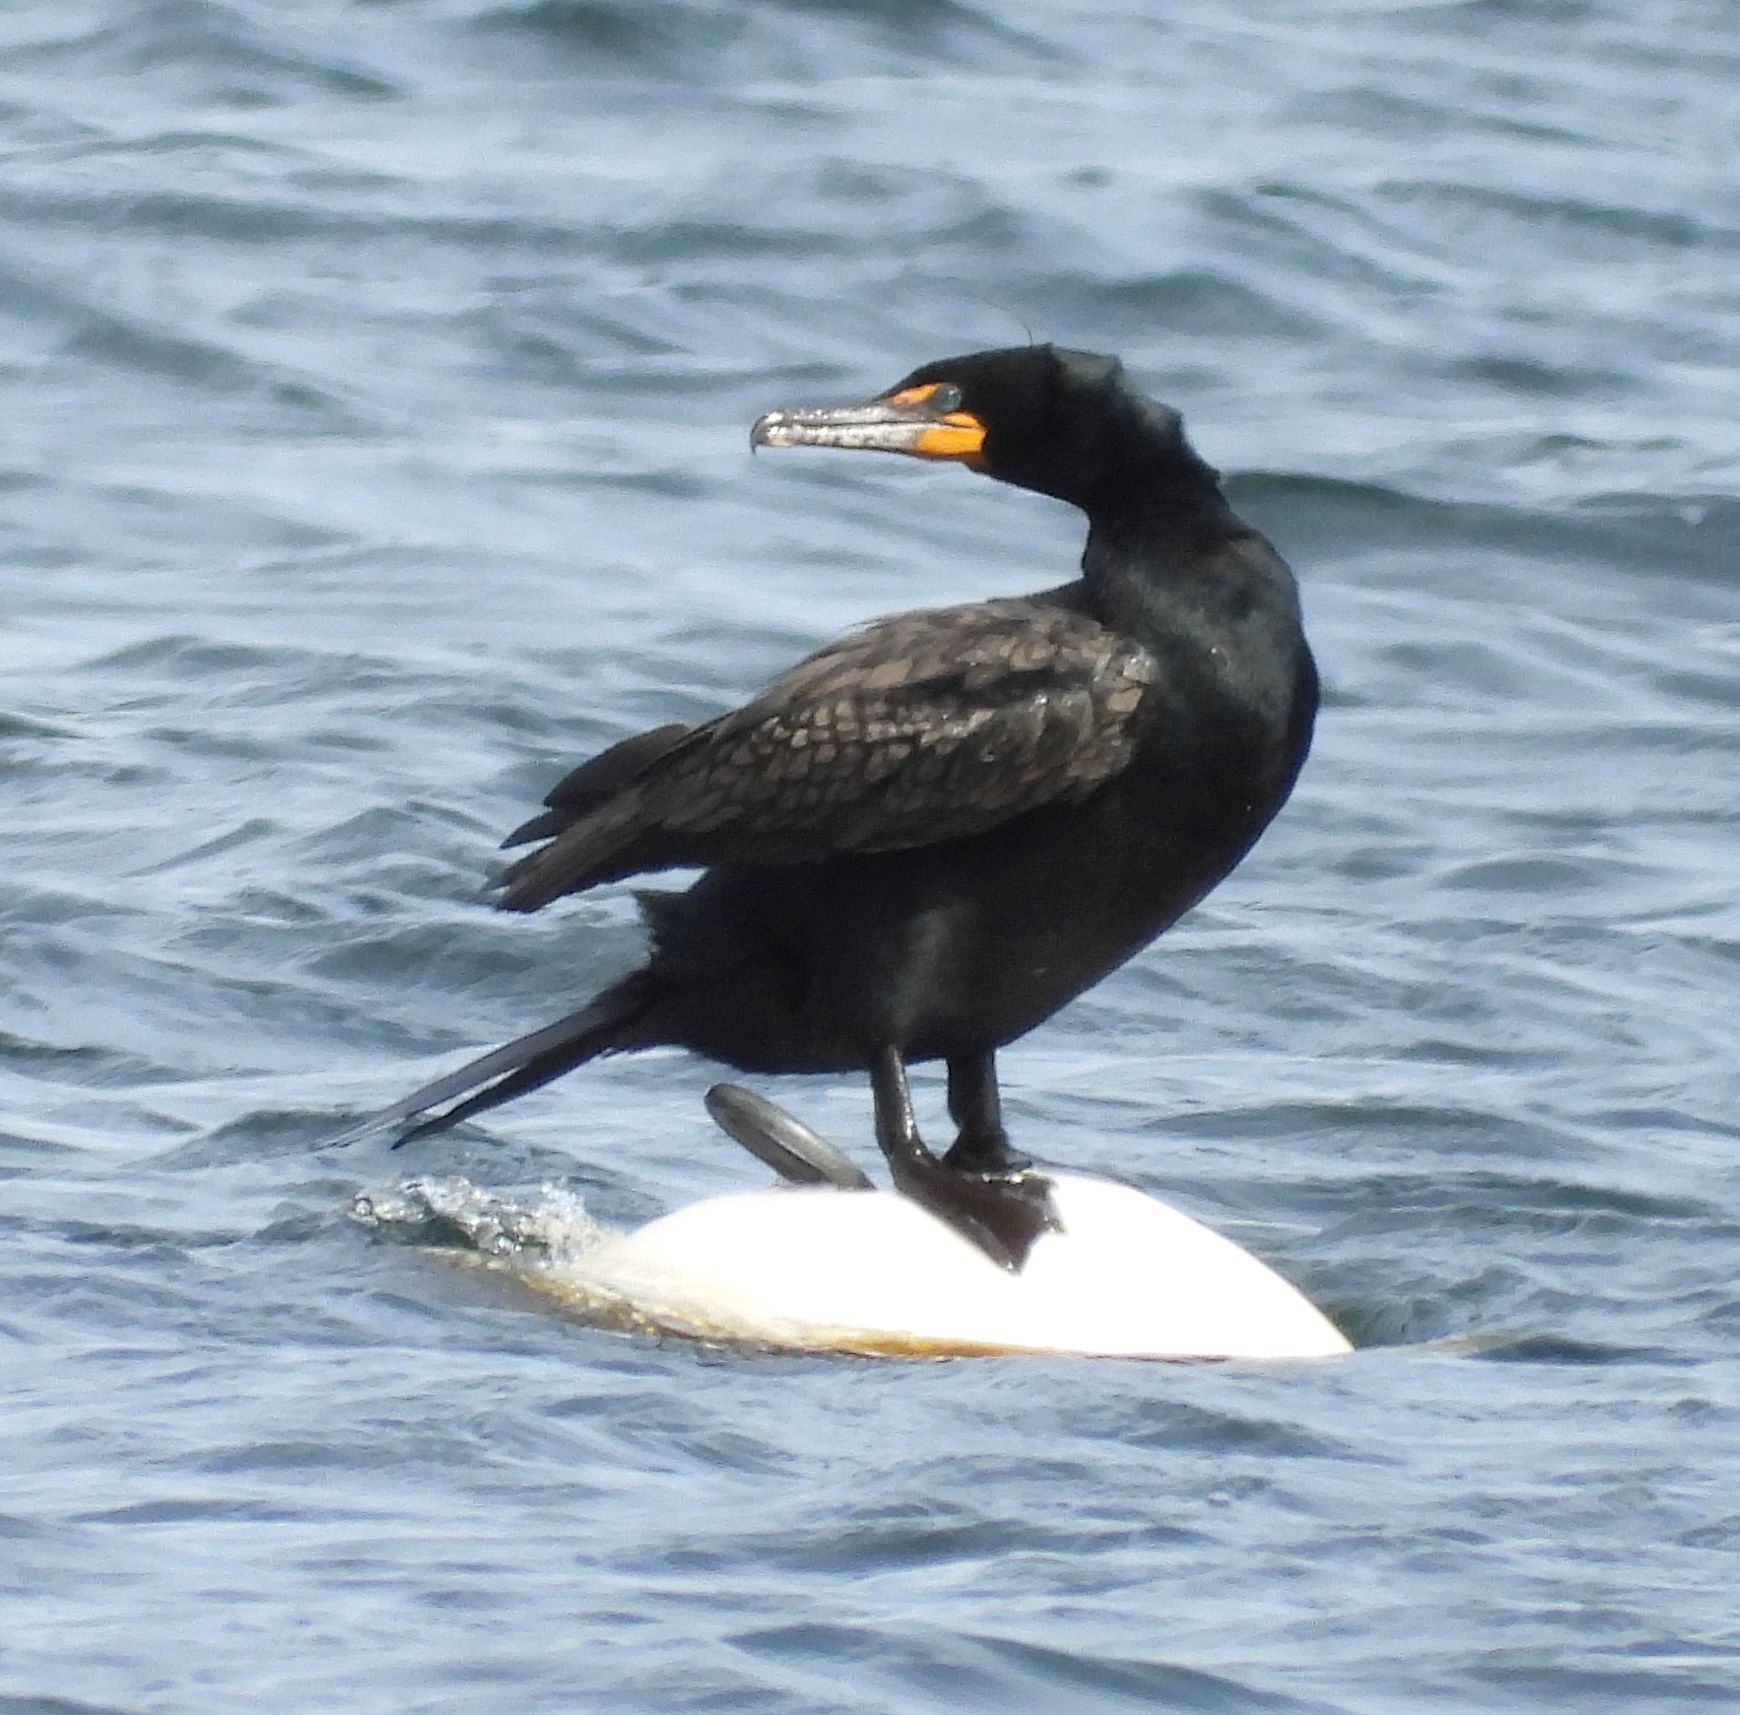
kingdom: Animalia
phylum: Chordata
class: Aves
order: Suliformes
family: Phalacrocoracidae
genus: Phalacrocorax
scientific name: Phalacrocorax auritus
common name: Double-crested cormorant
